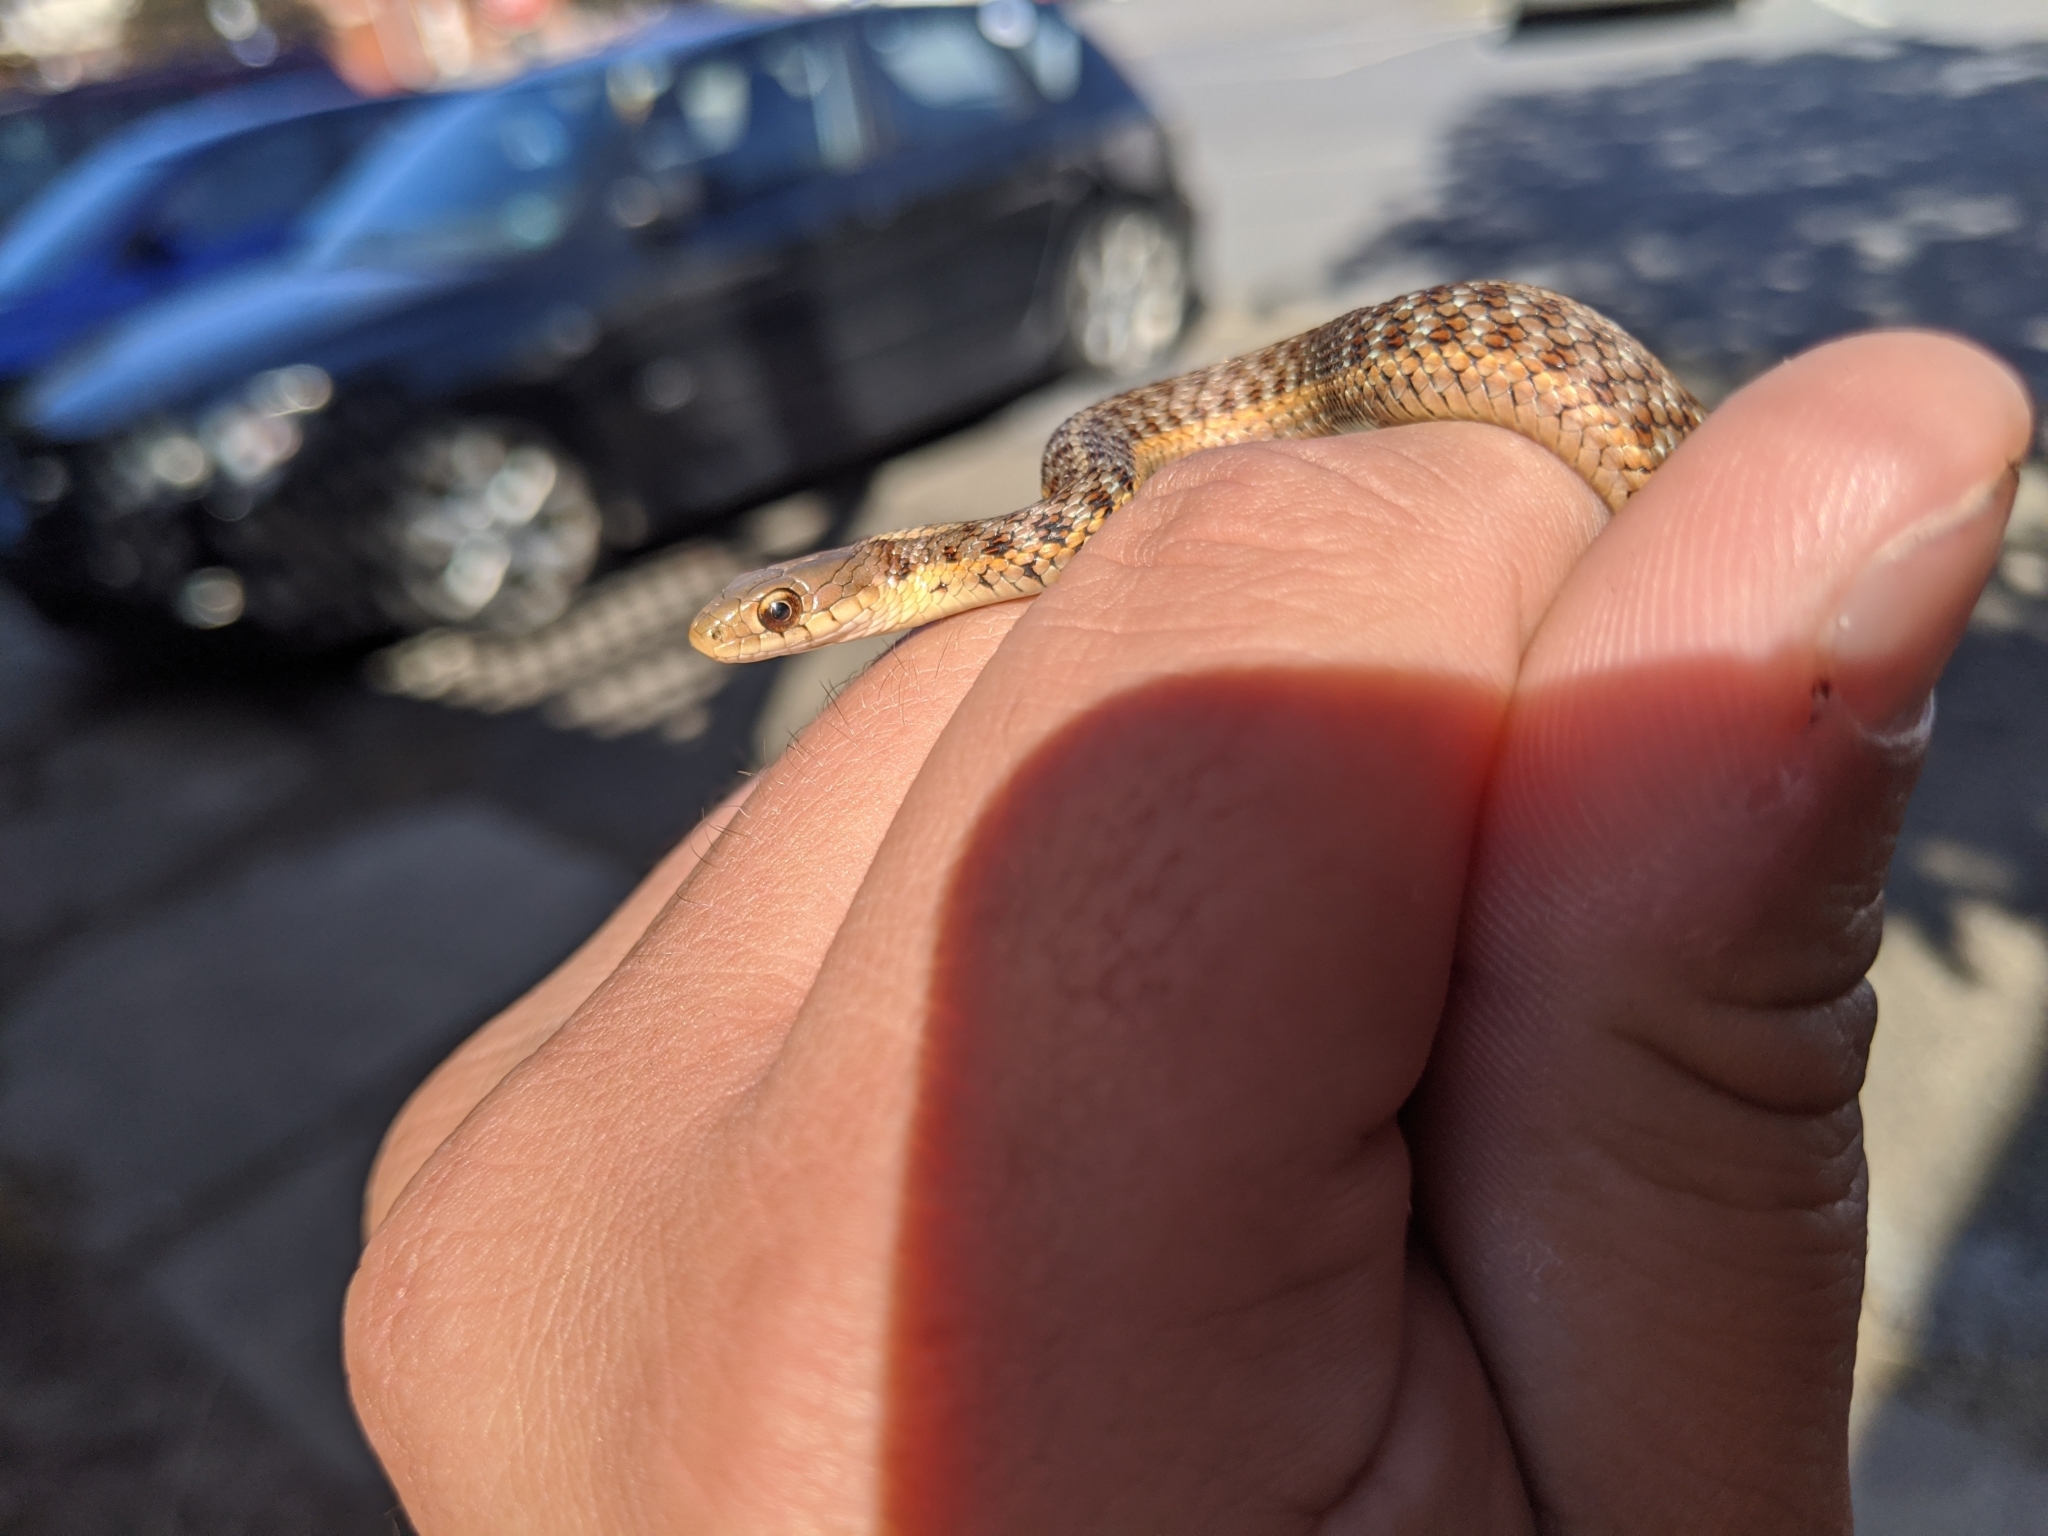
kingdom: Animalia
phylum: Chordata
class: Squamata
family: Colubridae
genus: Thamnophis
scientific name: Thamnophis sirtalis
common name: Common garter snake
